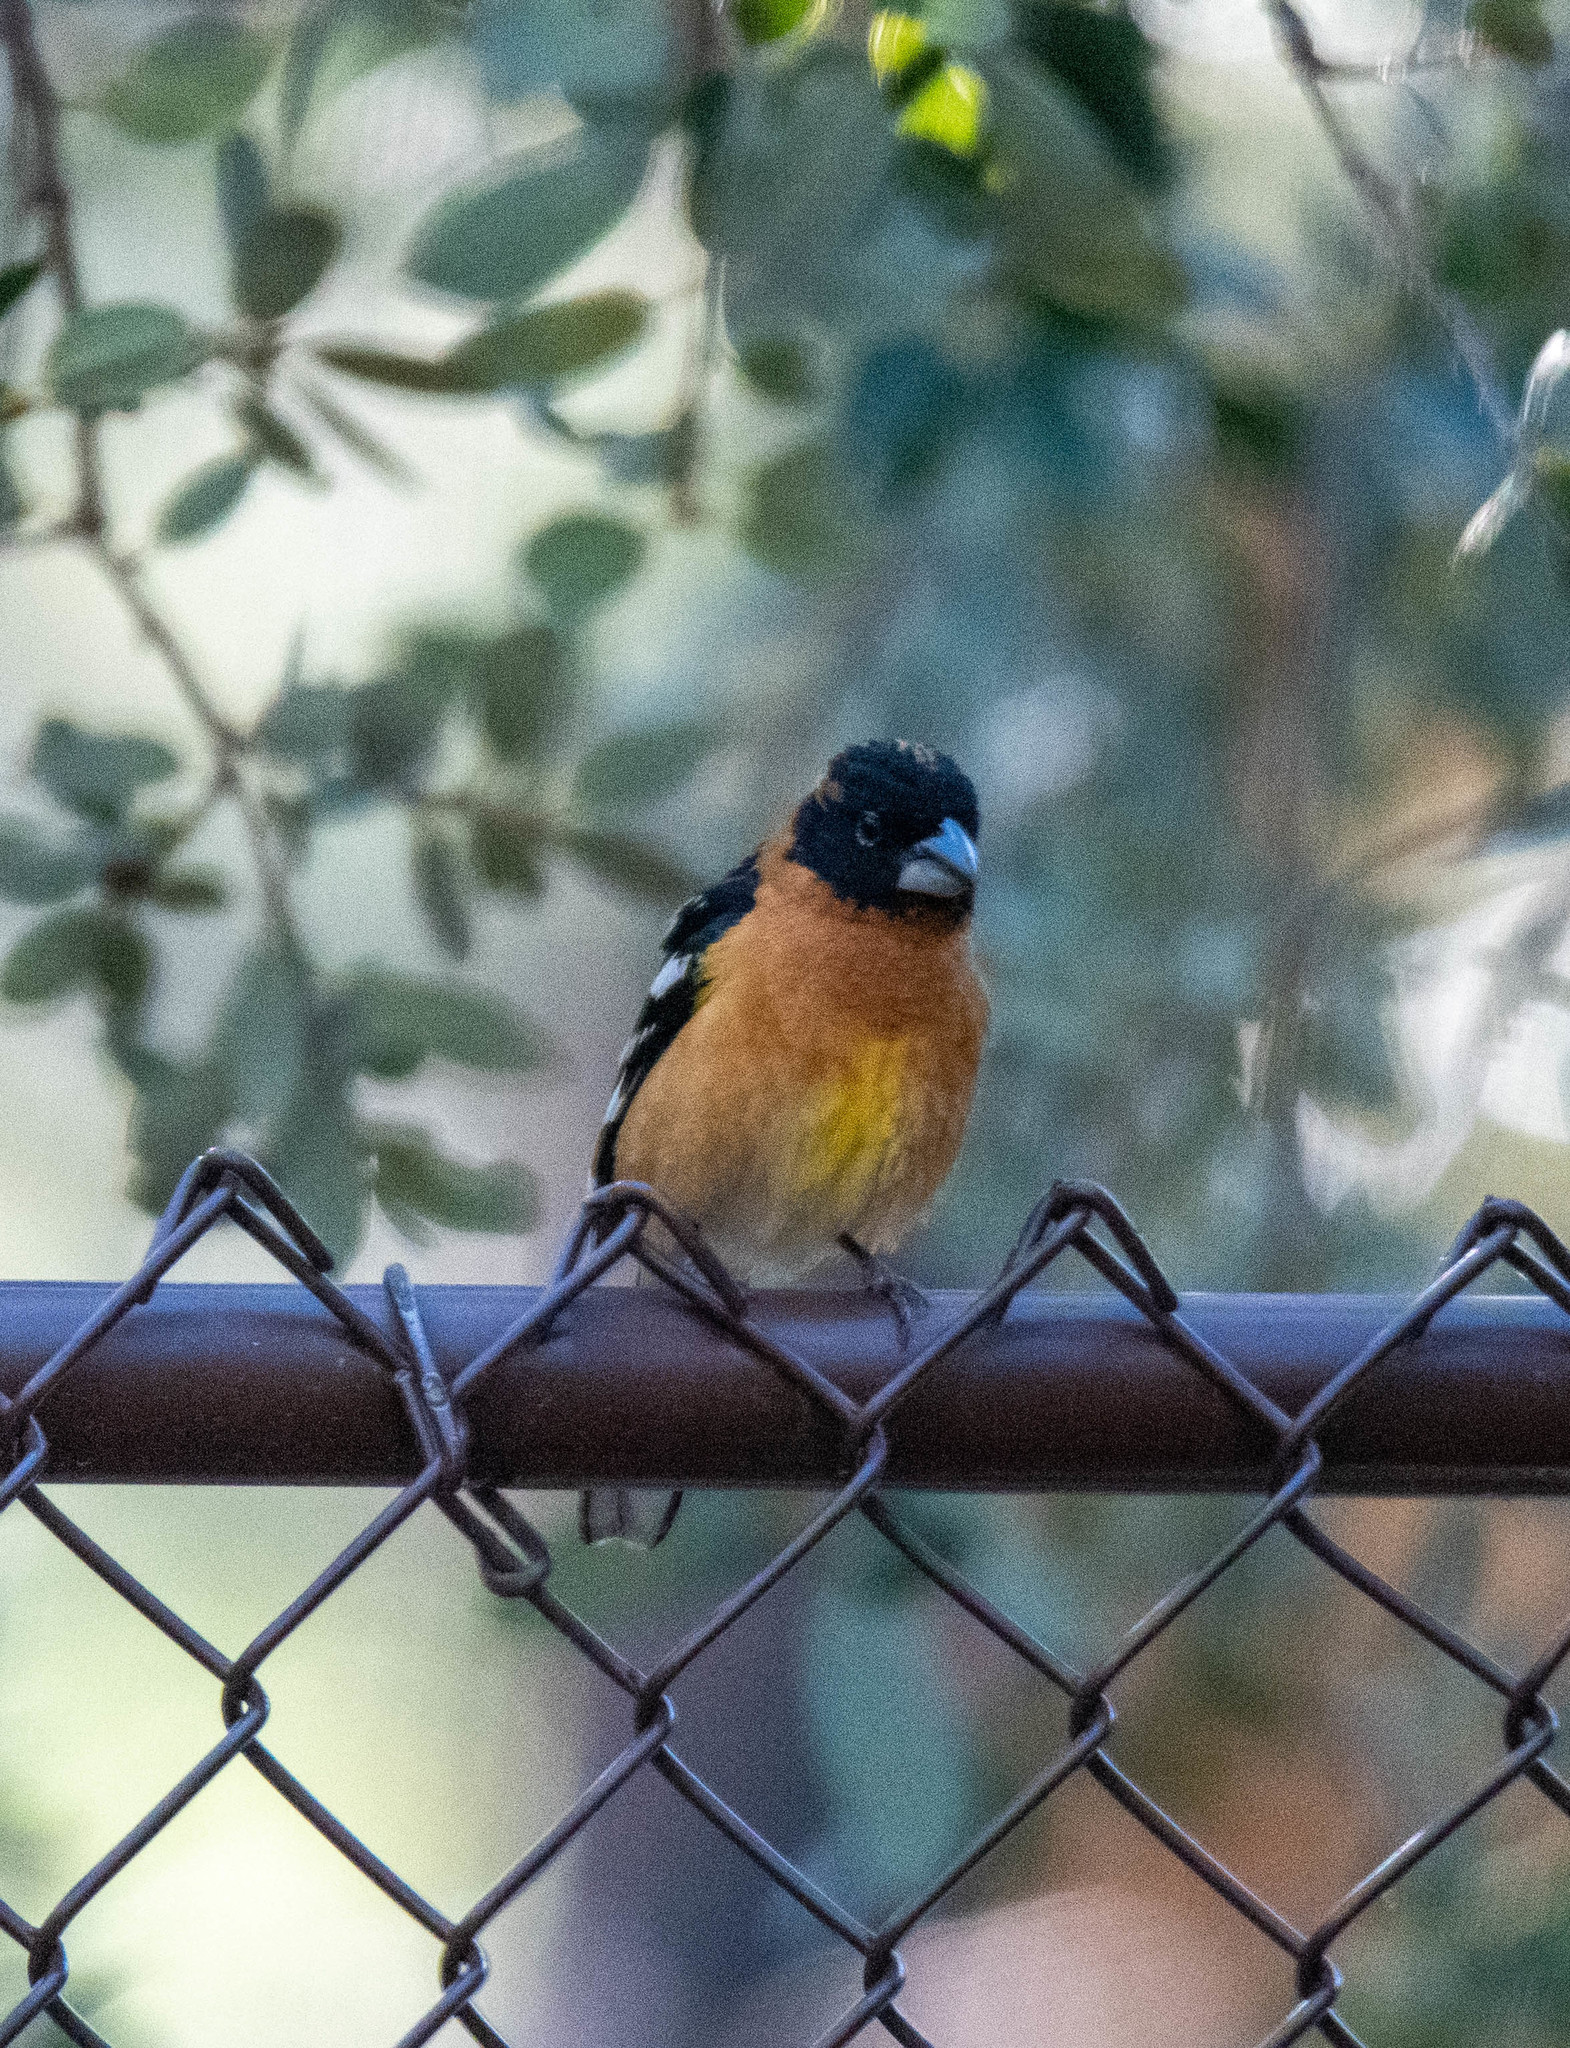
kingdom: Animalia
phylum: Chordata
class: Aves
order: Passeriformes
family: Cardinalidae
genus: Pheucticus
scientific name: Pheucticus melanocephalus
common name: Black-headed grosbeak
